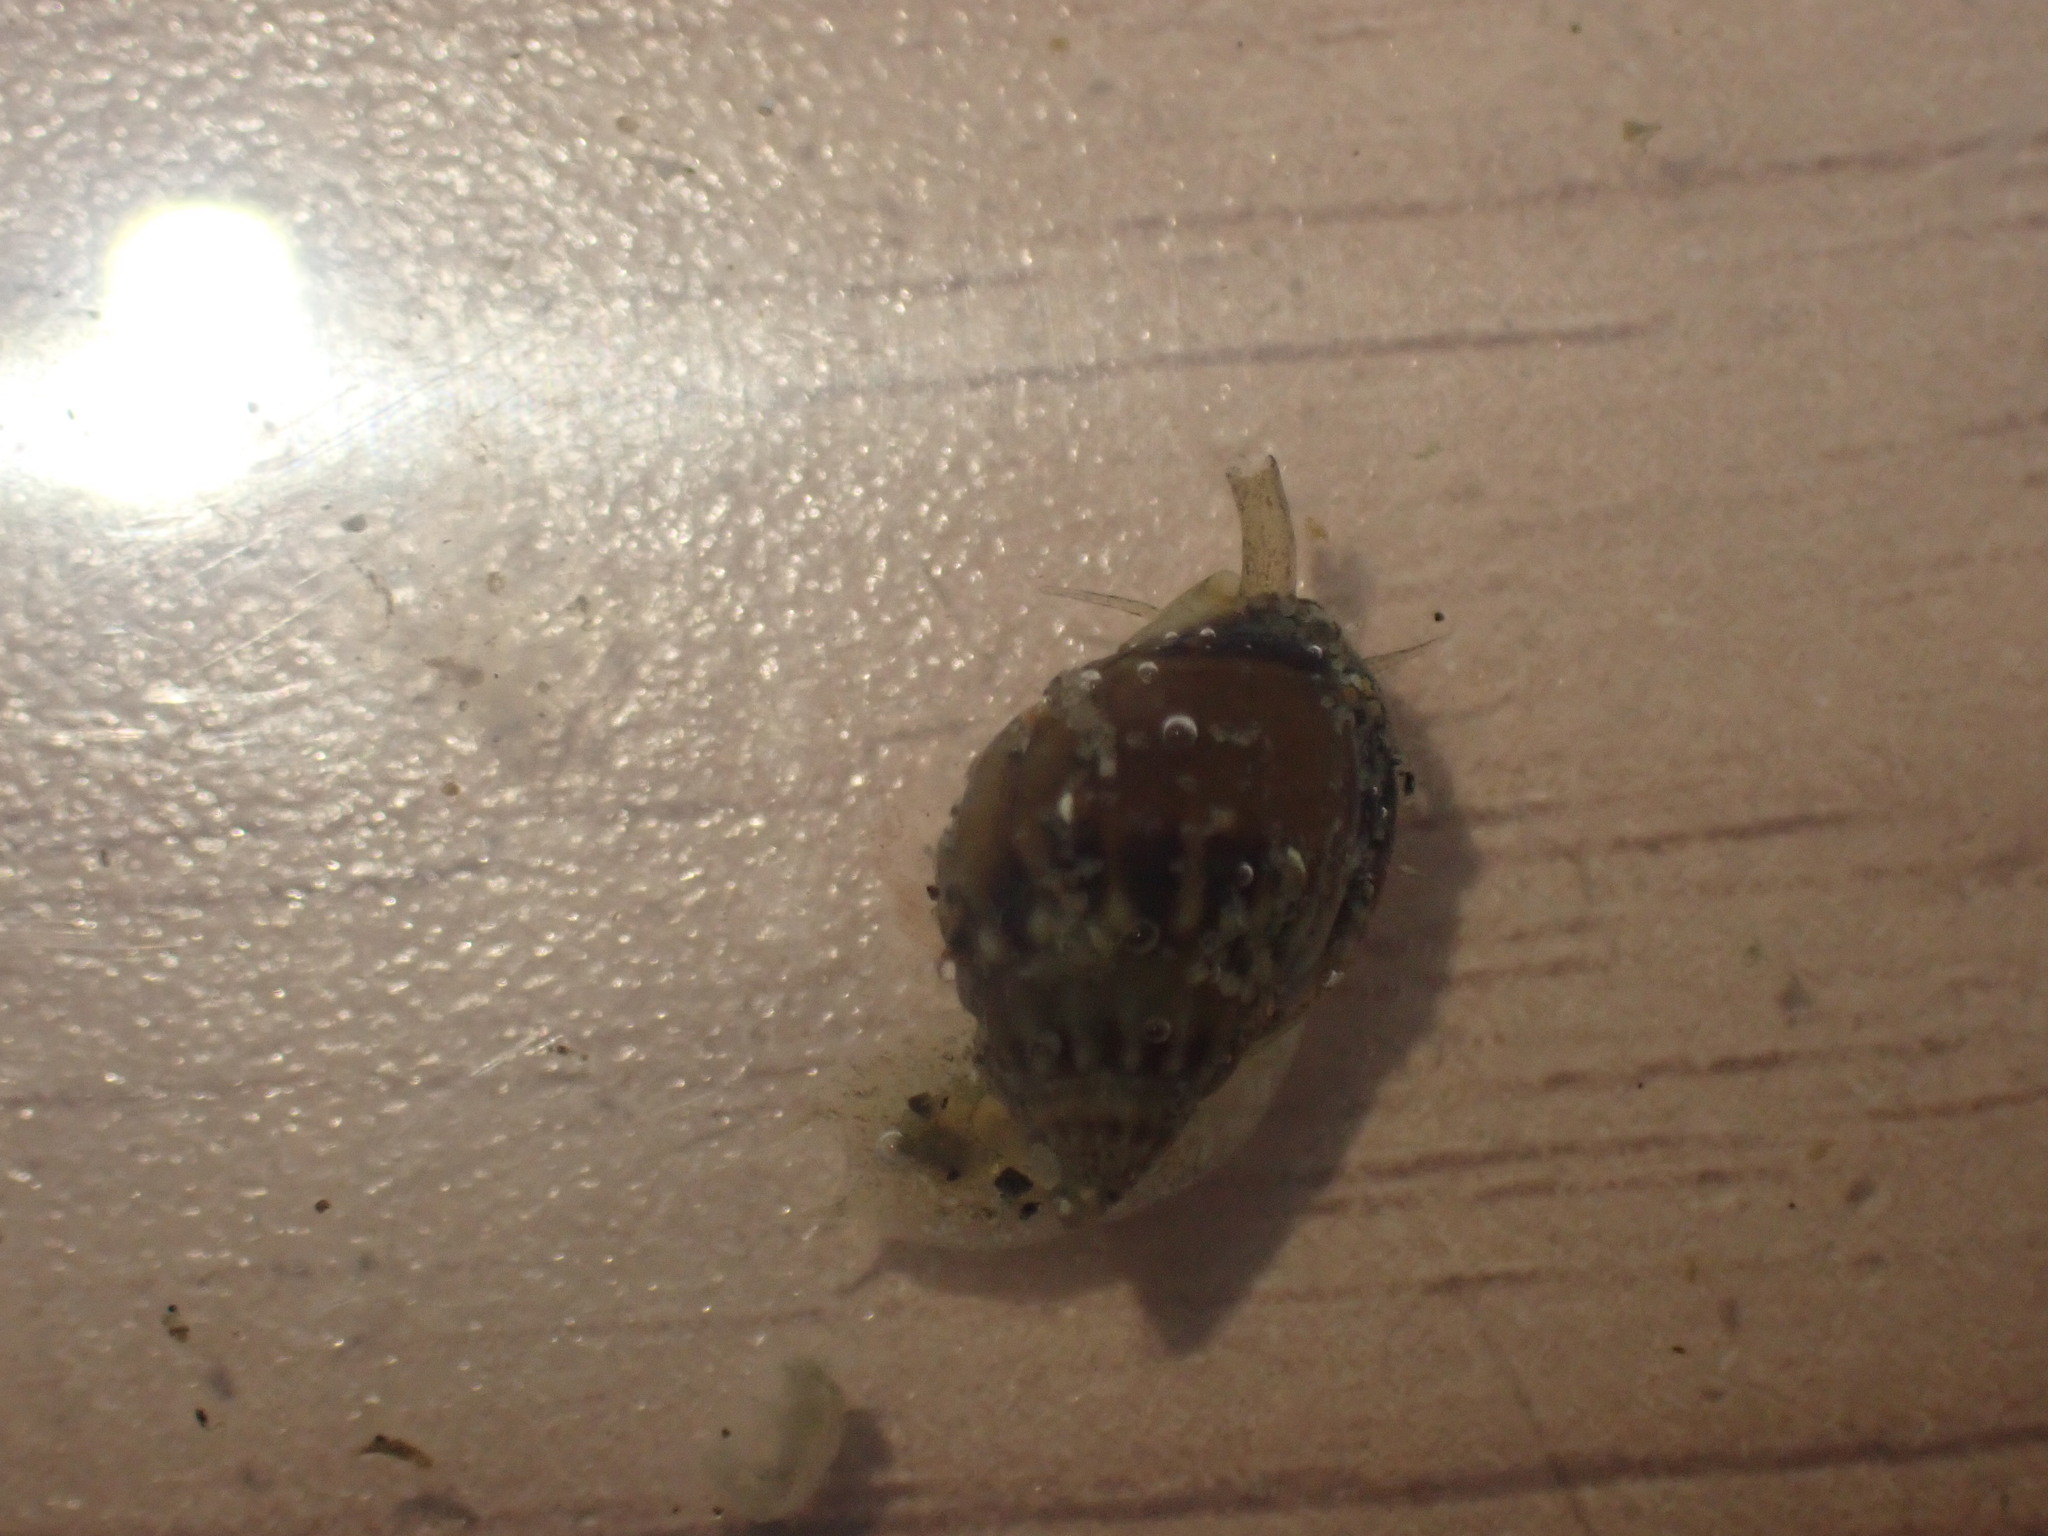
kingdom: Animalia
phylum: Mollusca
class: Gastropoda
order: Neogastropoda
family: Nassariidae
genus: Tritia
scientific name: Tritia burchardi
